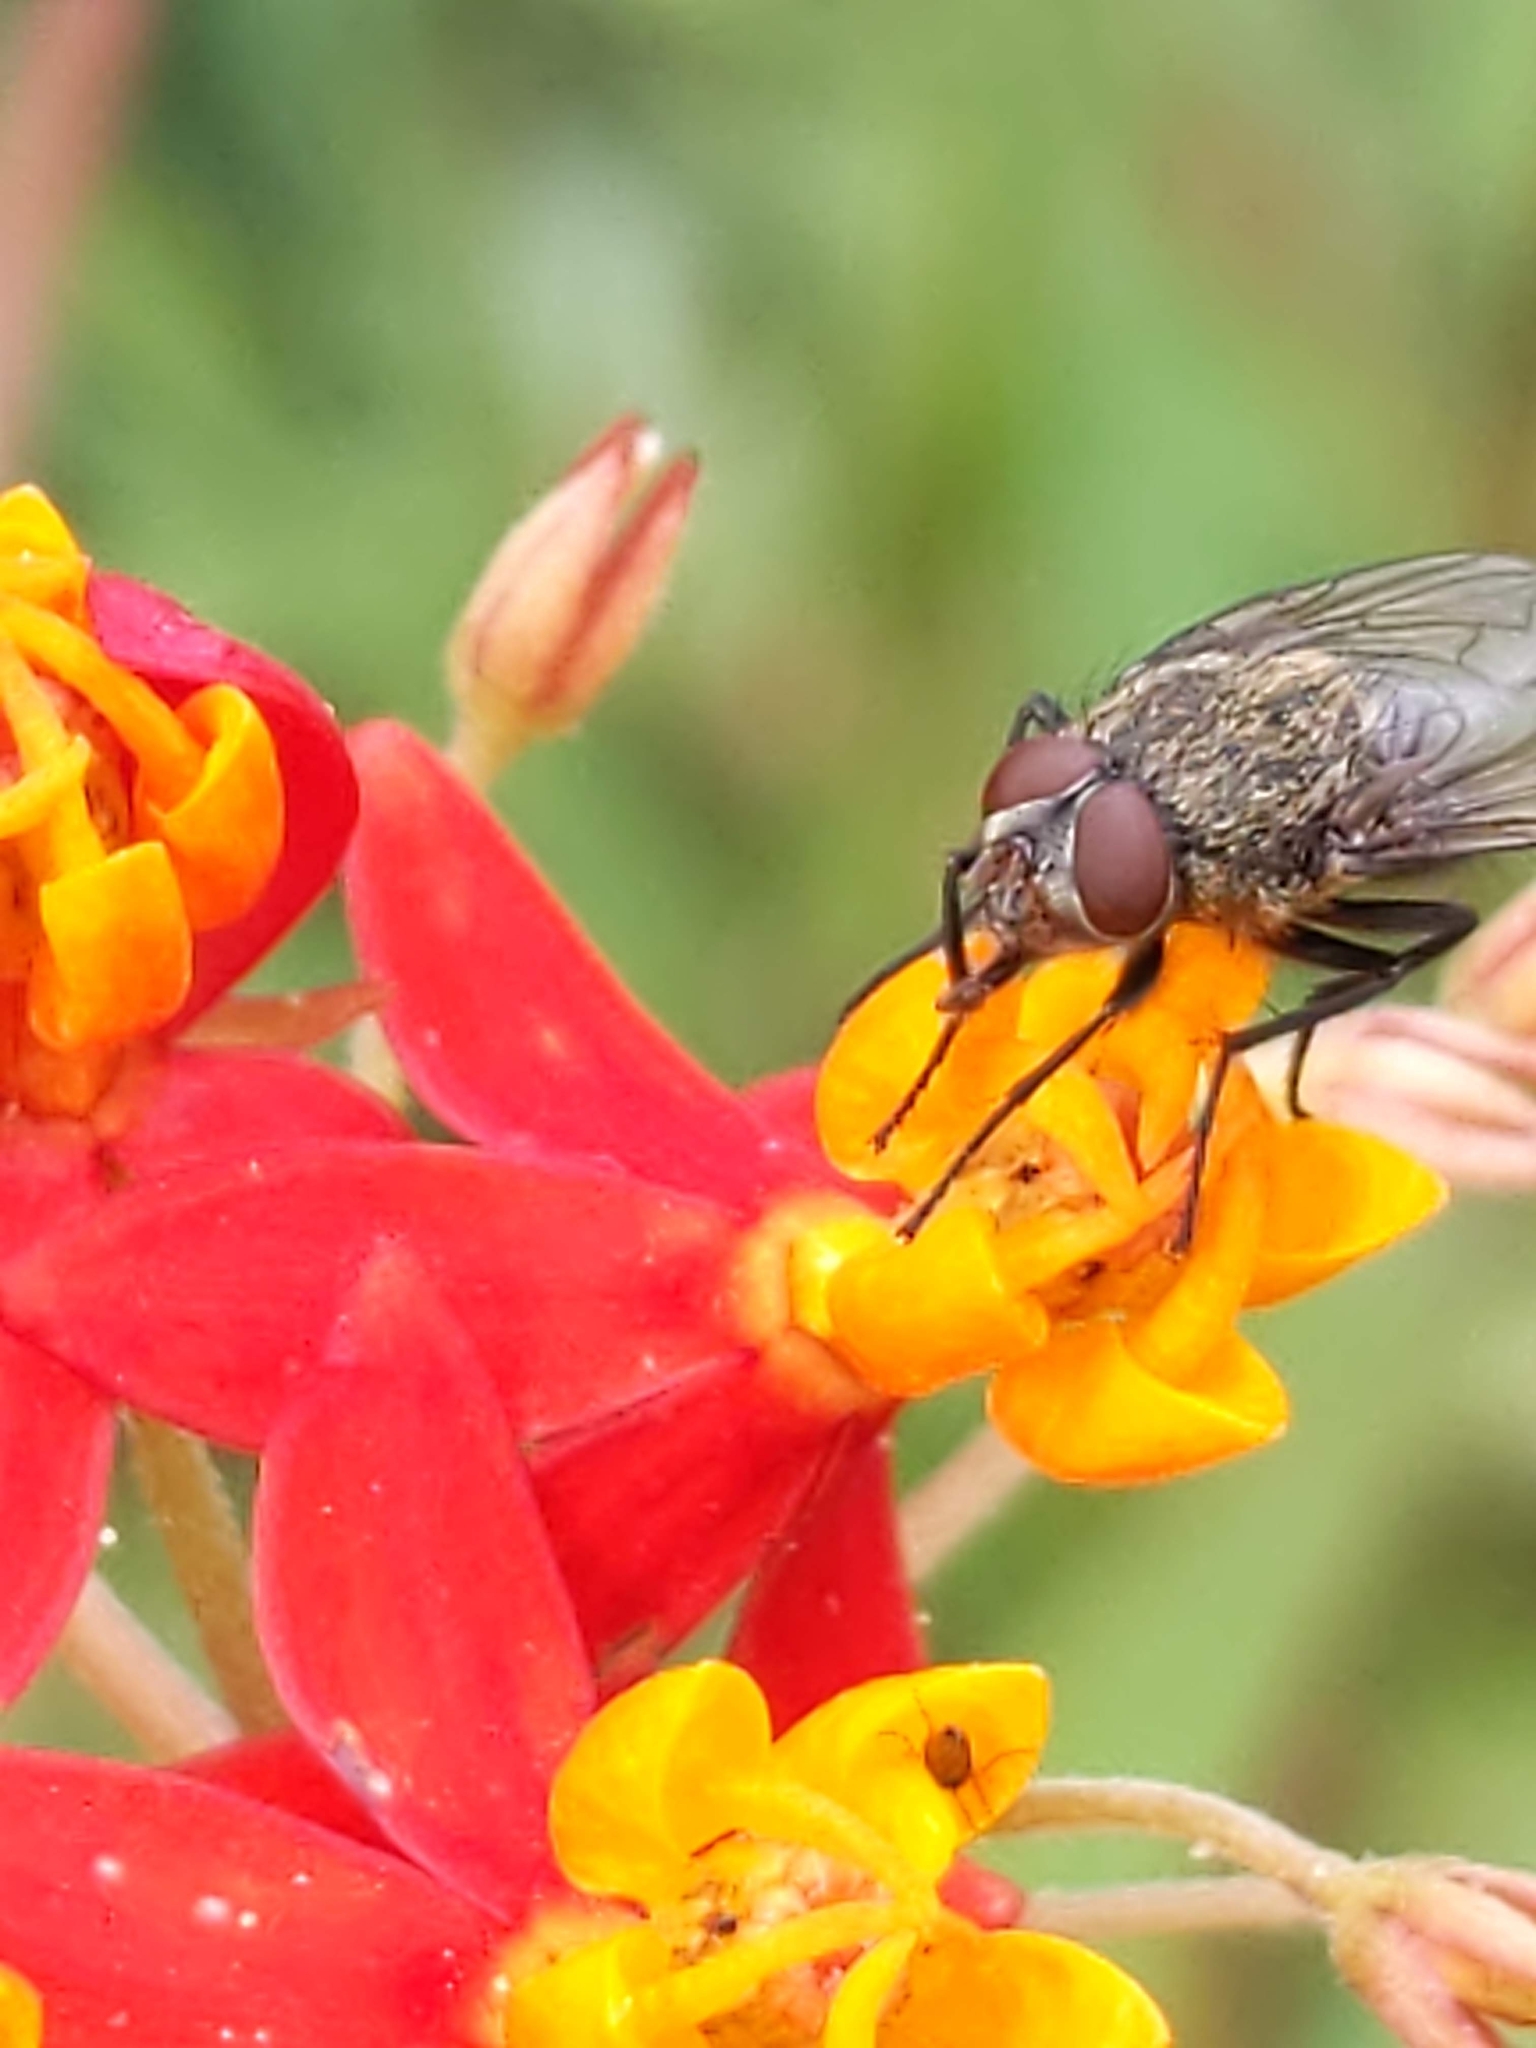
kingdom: Animalia
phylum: Arthropoda
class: Insecta
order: Diptera
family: Polleniidae
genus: Pollenia
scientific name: Pollenia
